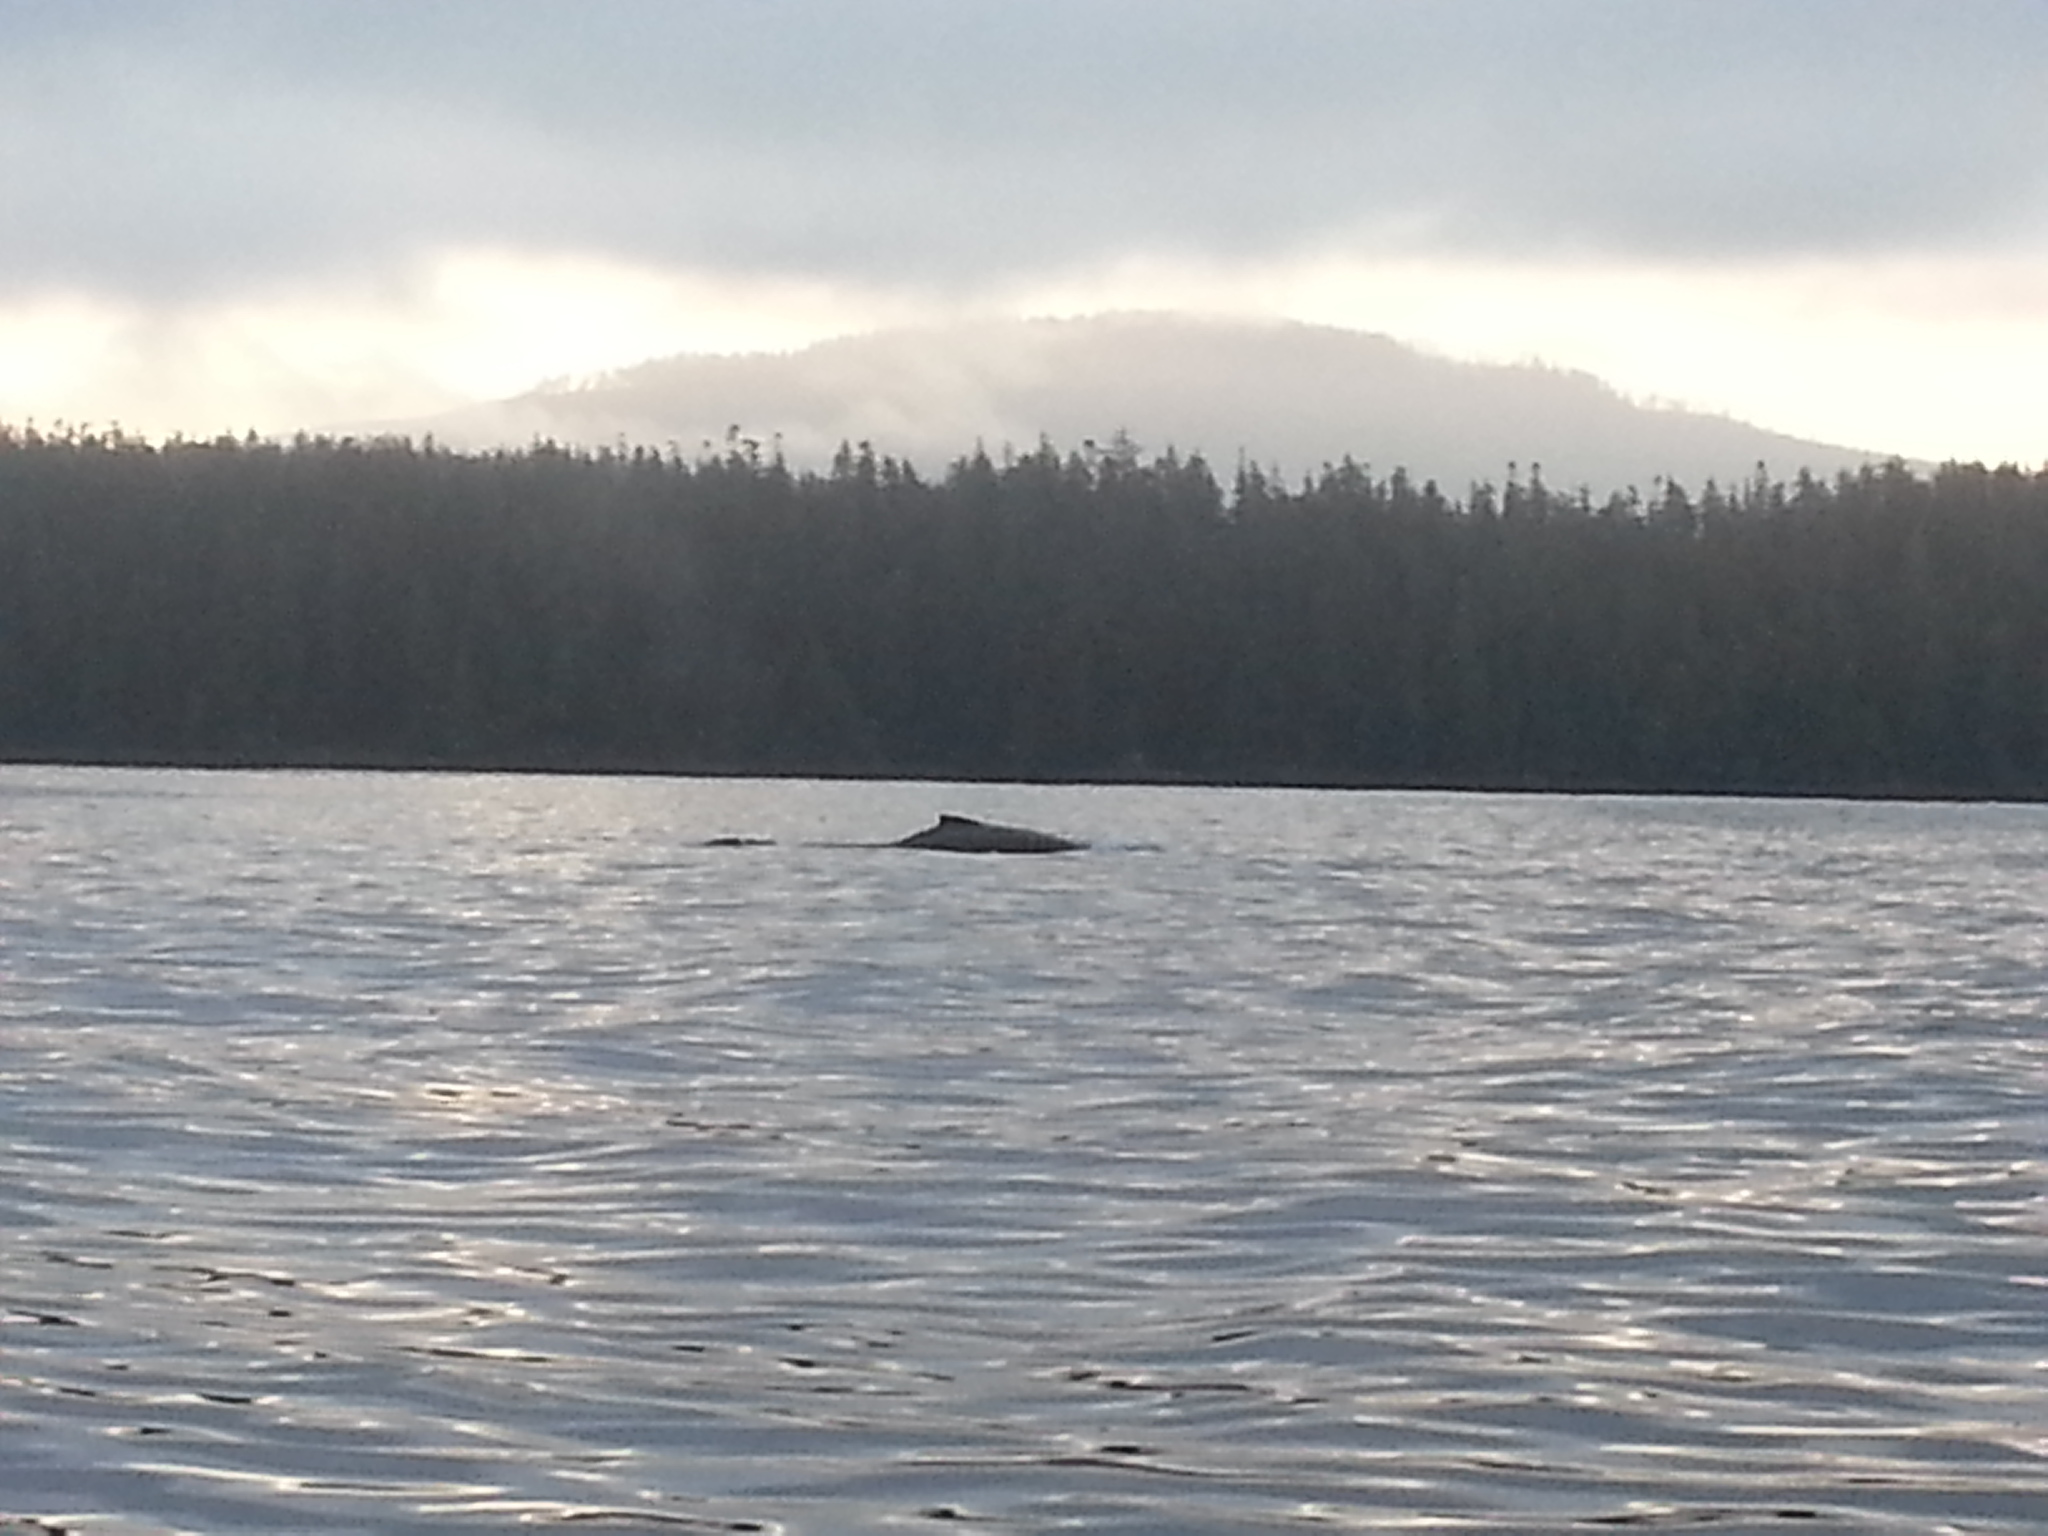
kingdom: Animalia
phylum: Chordata
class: Mammalia
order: Cetacea
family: Balaenopteridae
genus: Megaptera
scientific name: Megaptera novaeangliae
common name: Humpback whale
